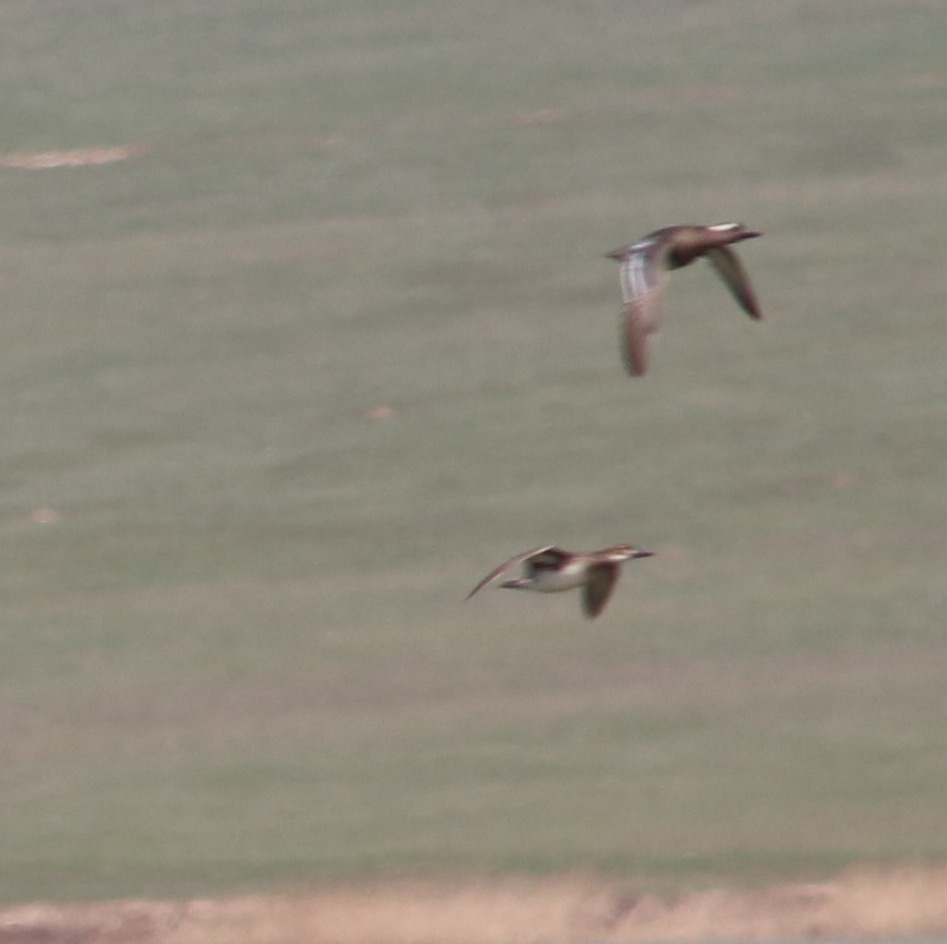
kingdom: Animalia
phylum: Chordata
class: Aves
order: Anseriformes
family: Anatidae
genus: Spatula
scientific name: Spatula querquedula
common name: Garganey
